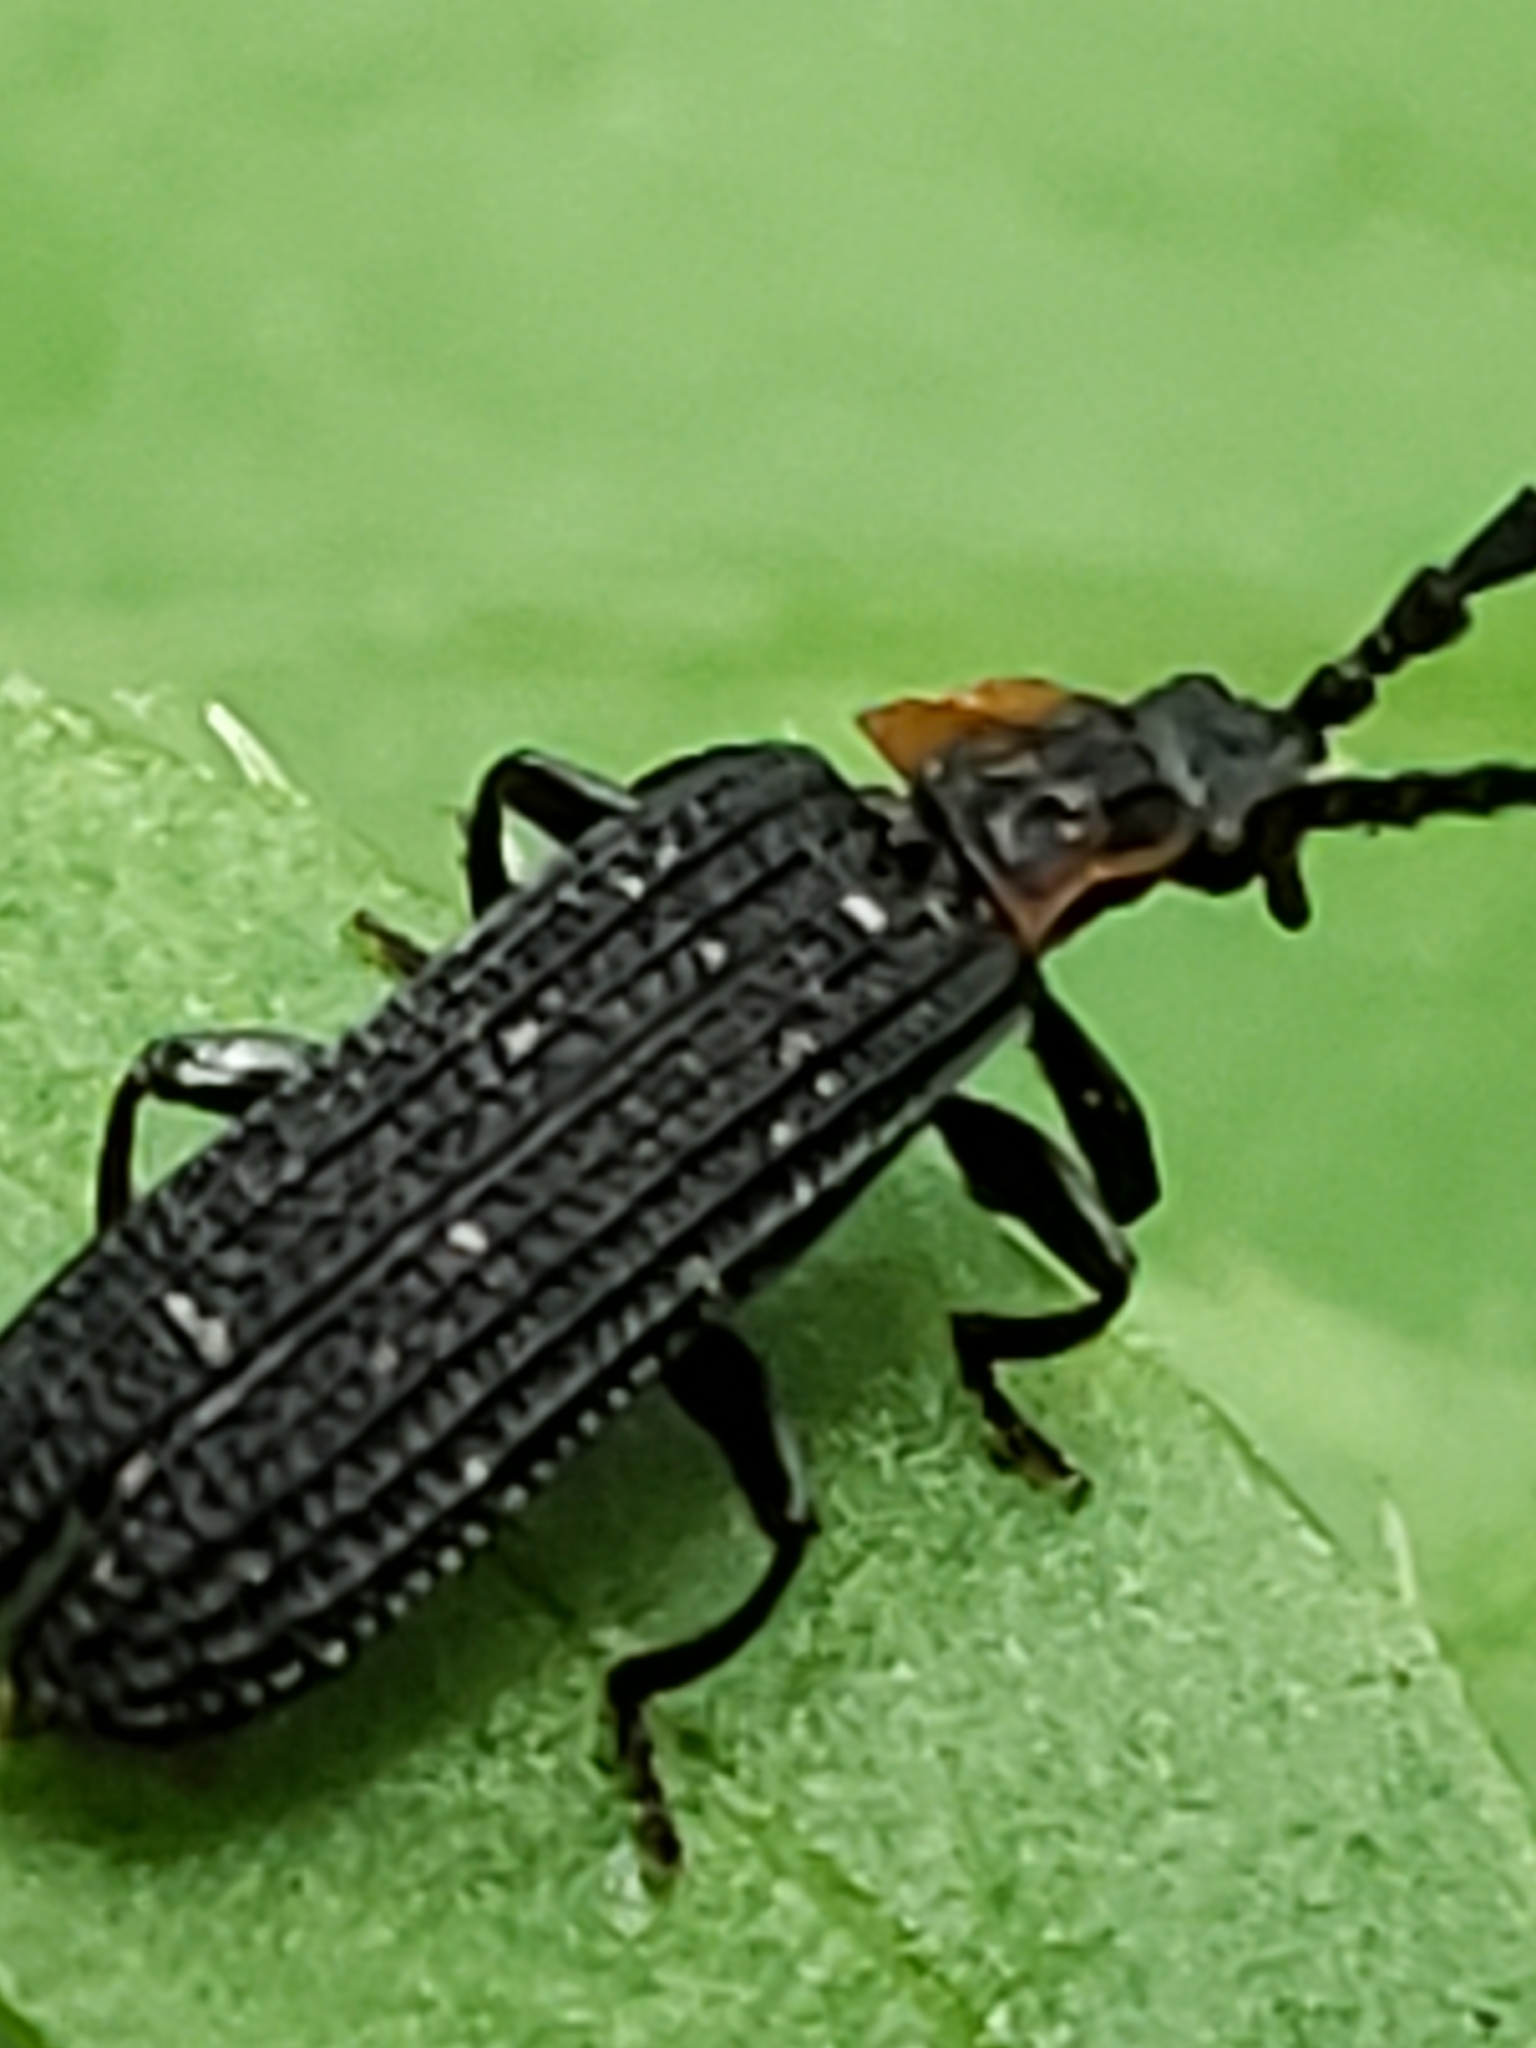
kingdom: Animalia
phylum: Arthropoda
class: Insecta
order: Coleoptera
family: Lycidae
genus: Erotides
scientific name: Erotides sculptilis
